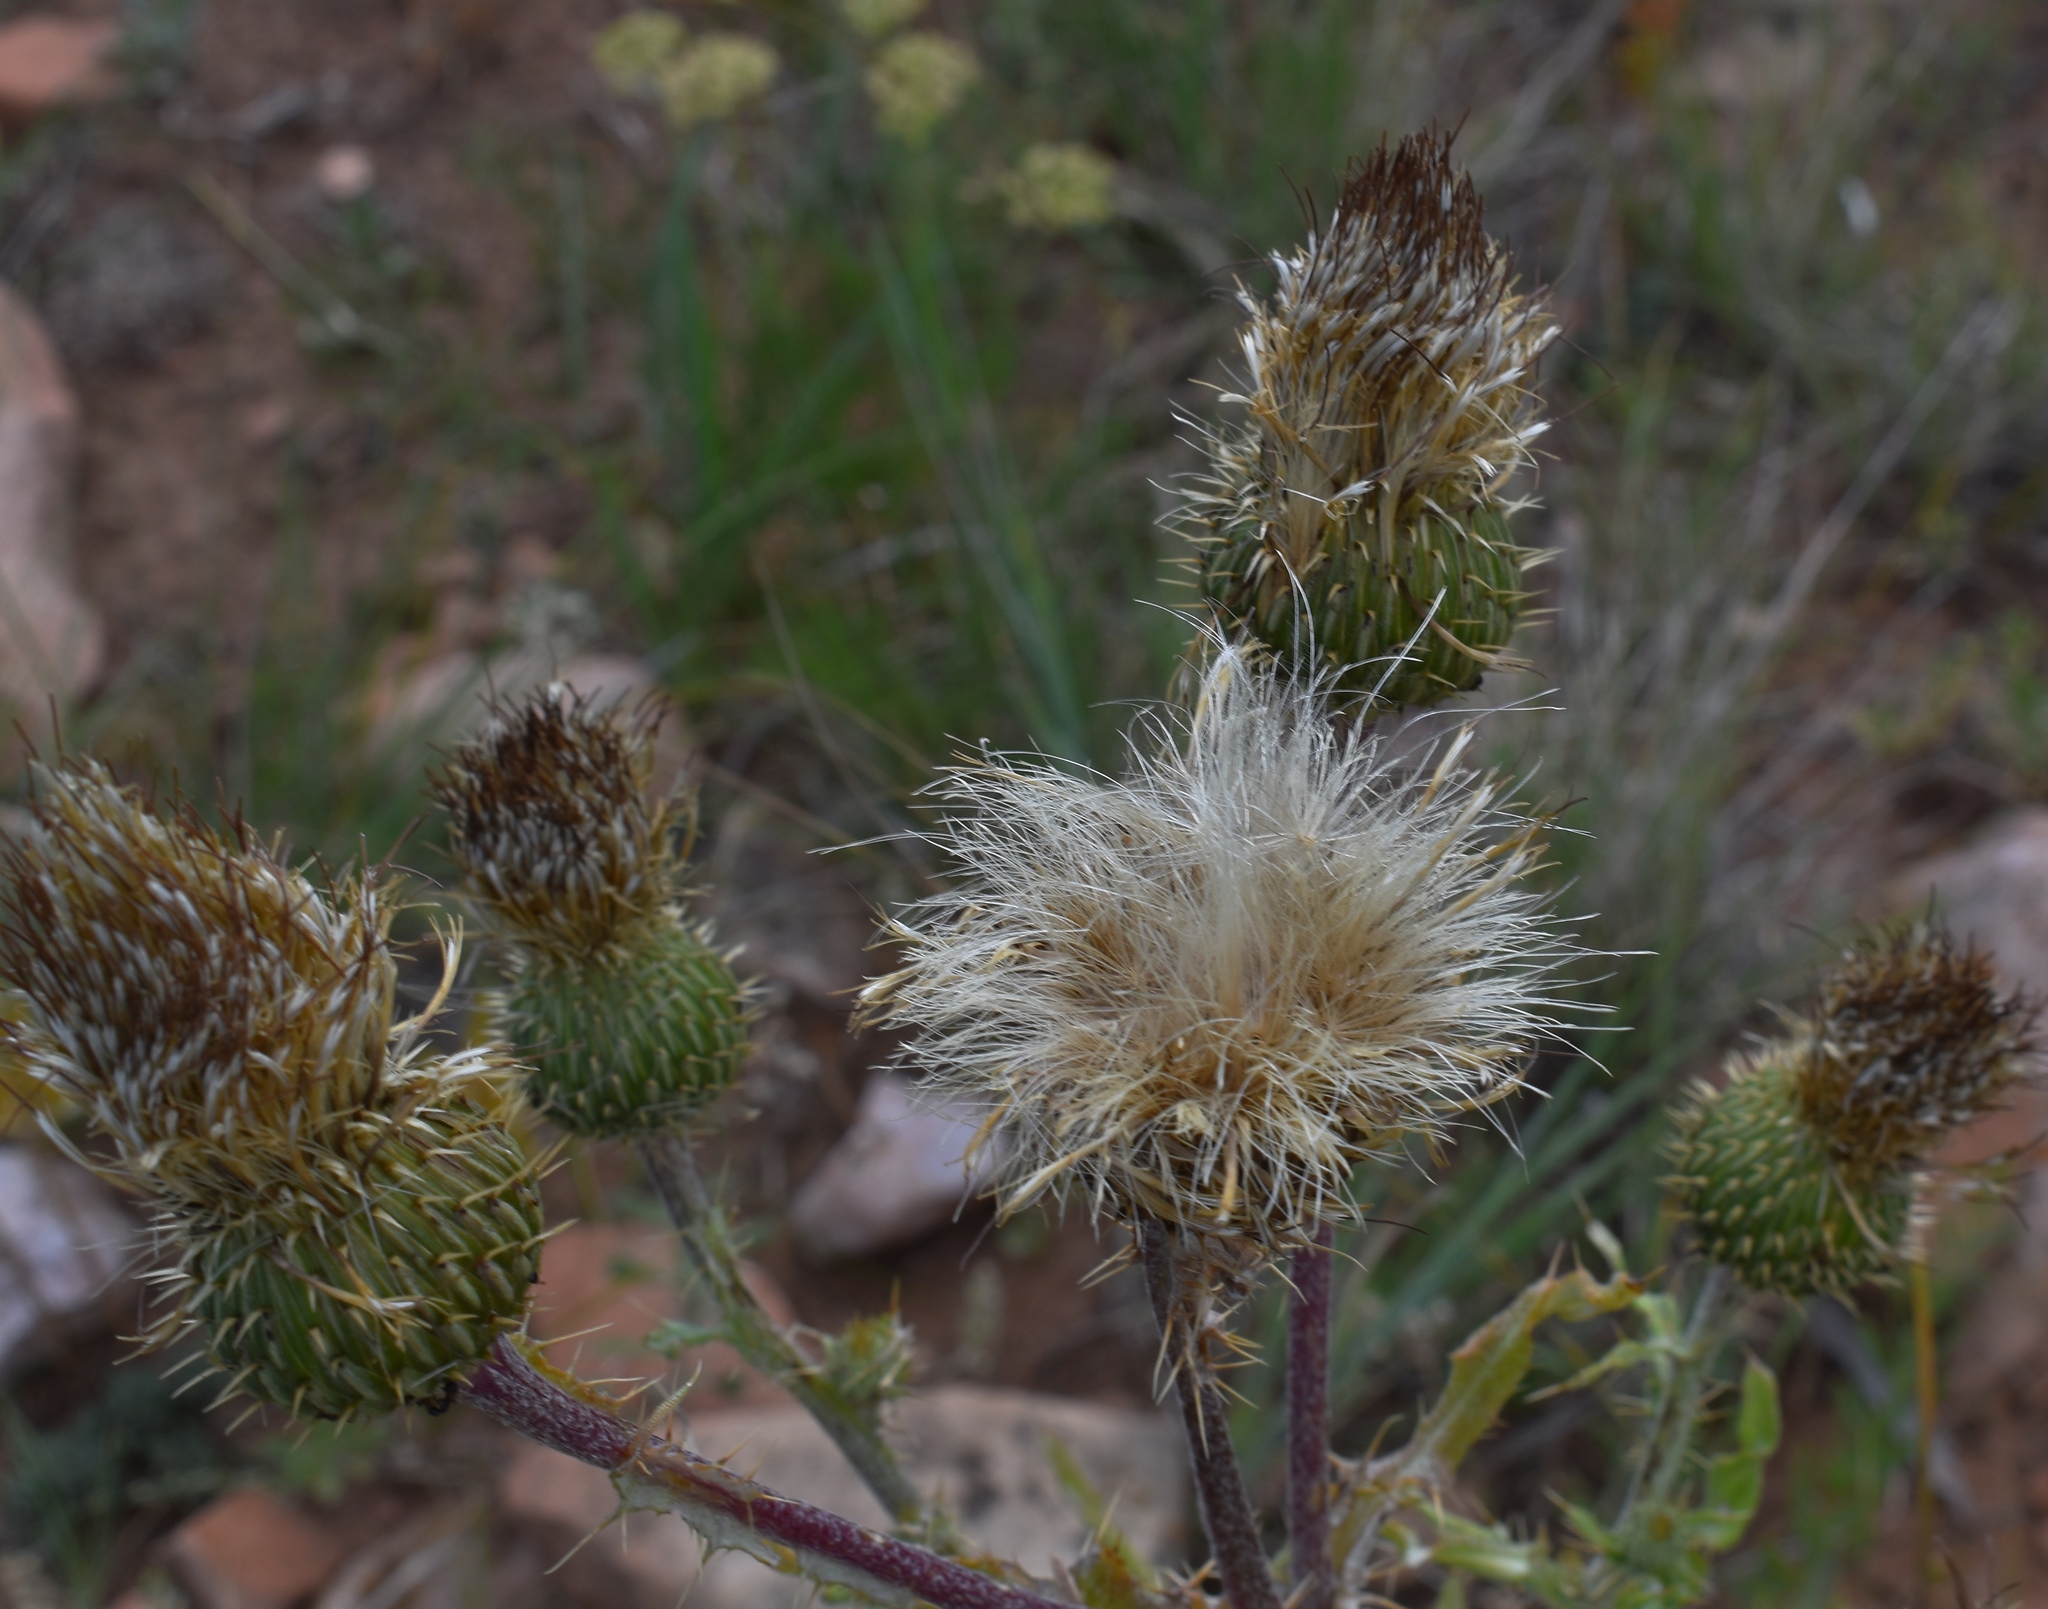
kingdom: Plantae
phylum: Tracheophyta
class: Magnoliopsida
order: Asterales
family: Asteraceae
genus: Cirsium
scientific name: Cirsium canescens
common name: Prairie thistle
